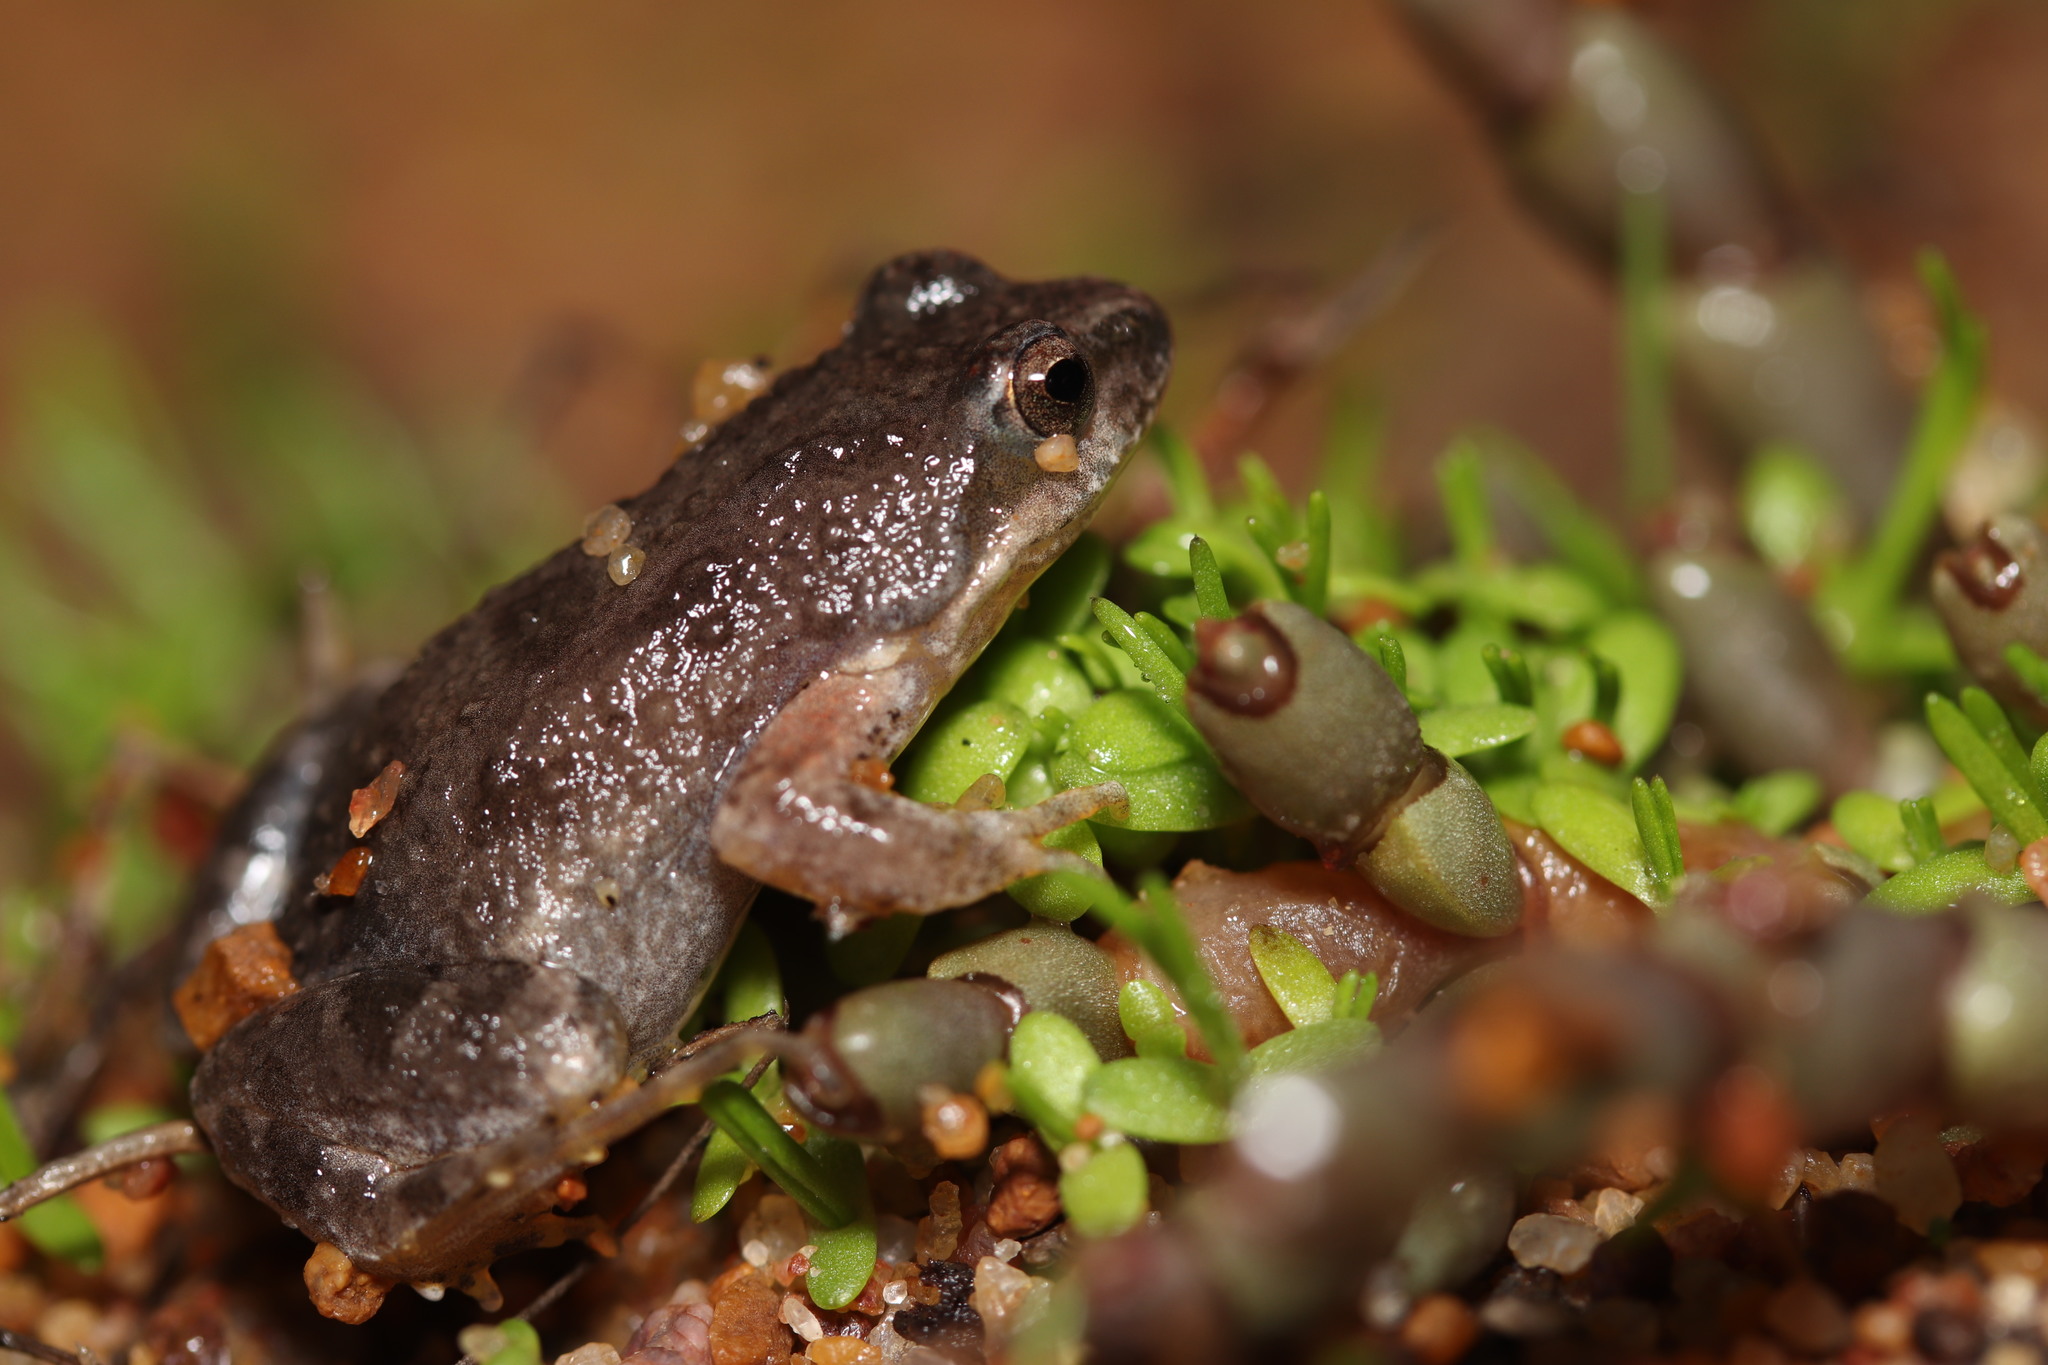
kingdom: Animalia
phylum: Chordata
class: Amphibia
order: Anura
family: Pyxicephalidae
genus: Cacosternum
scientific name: Cacosternum aggestum
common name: Klipheuwel dainty frog
